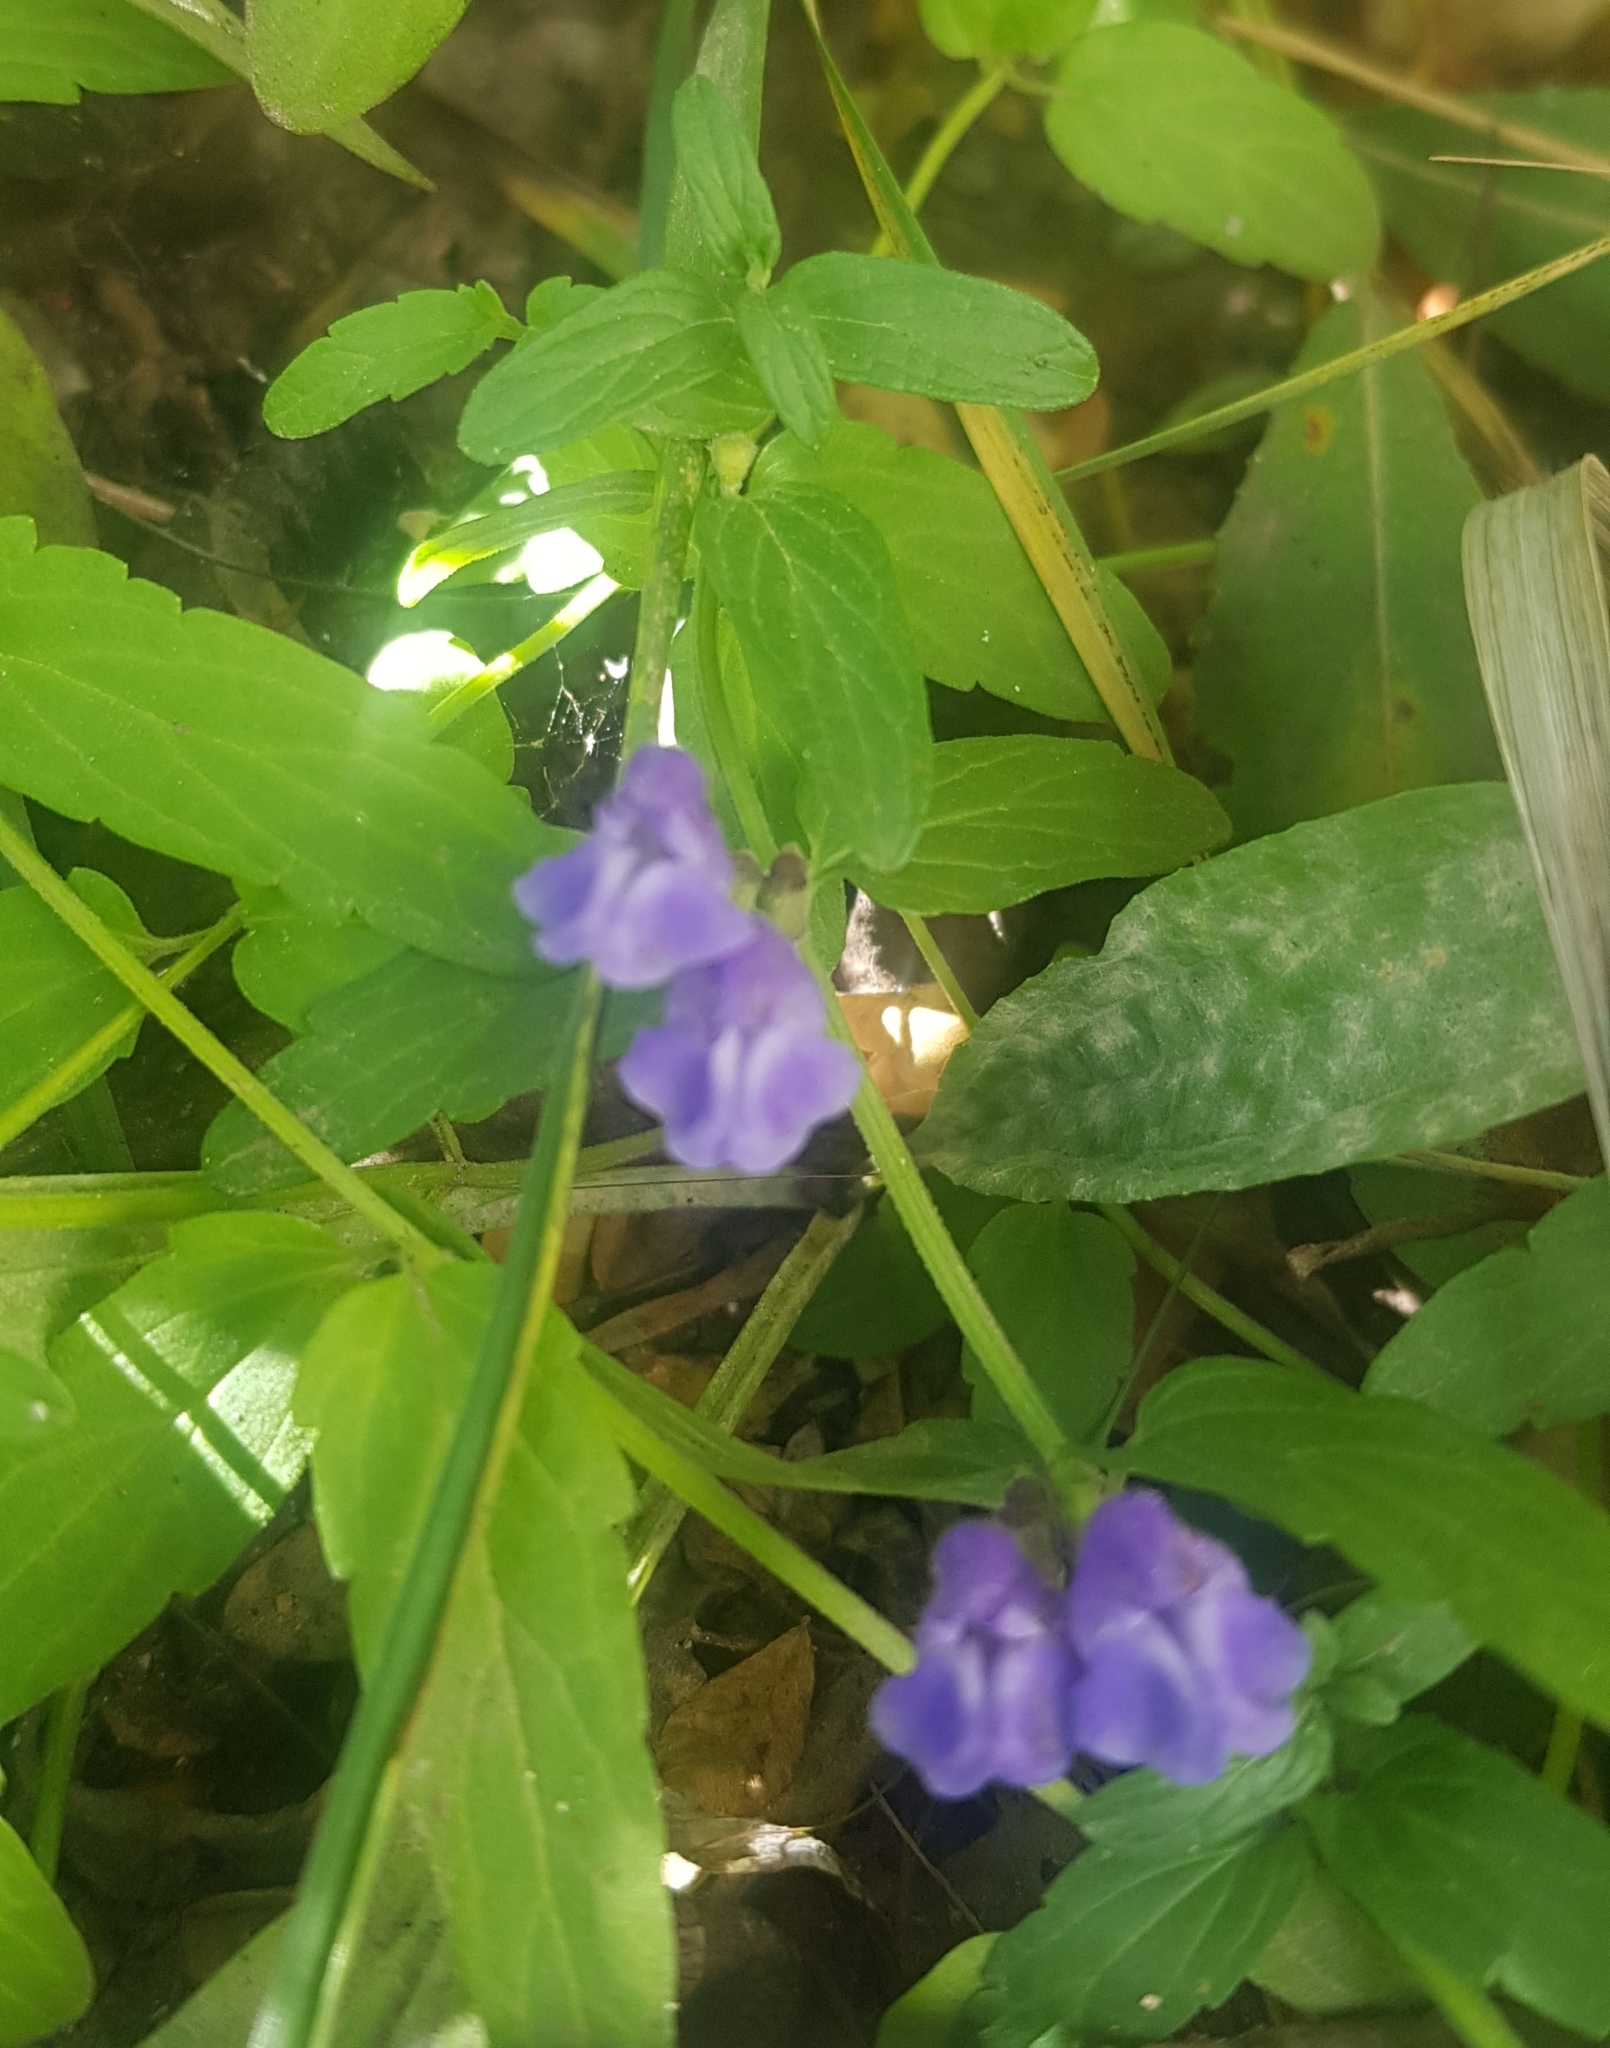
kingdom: Plantae
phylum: Tracheophyta
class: Magnoliopsida
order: Lamiales
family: Lamiaceae
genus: Scutellaria
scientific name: Scutellaria galericulata
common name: Skullcap
